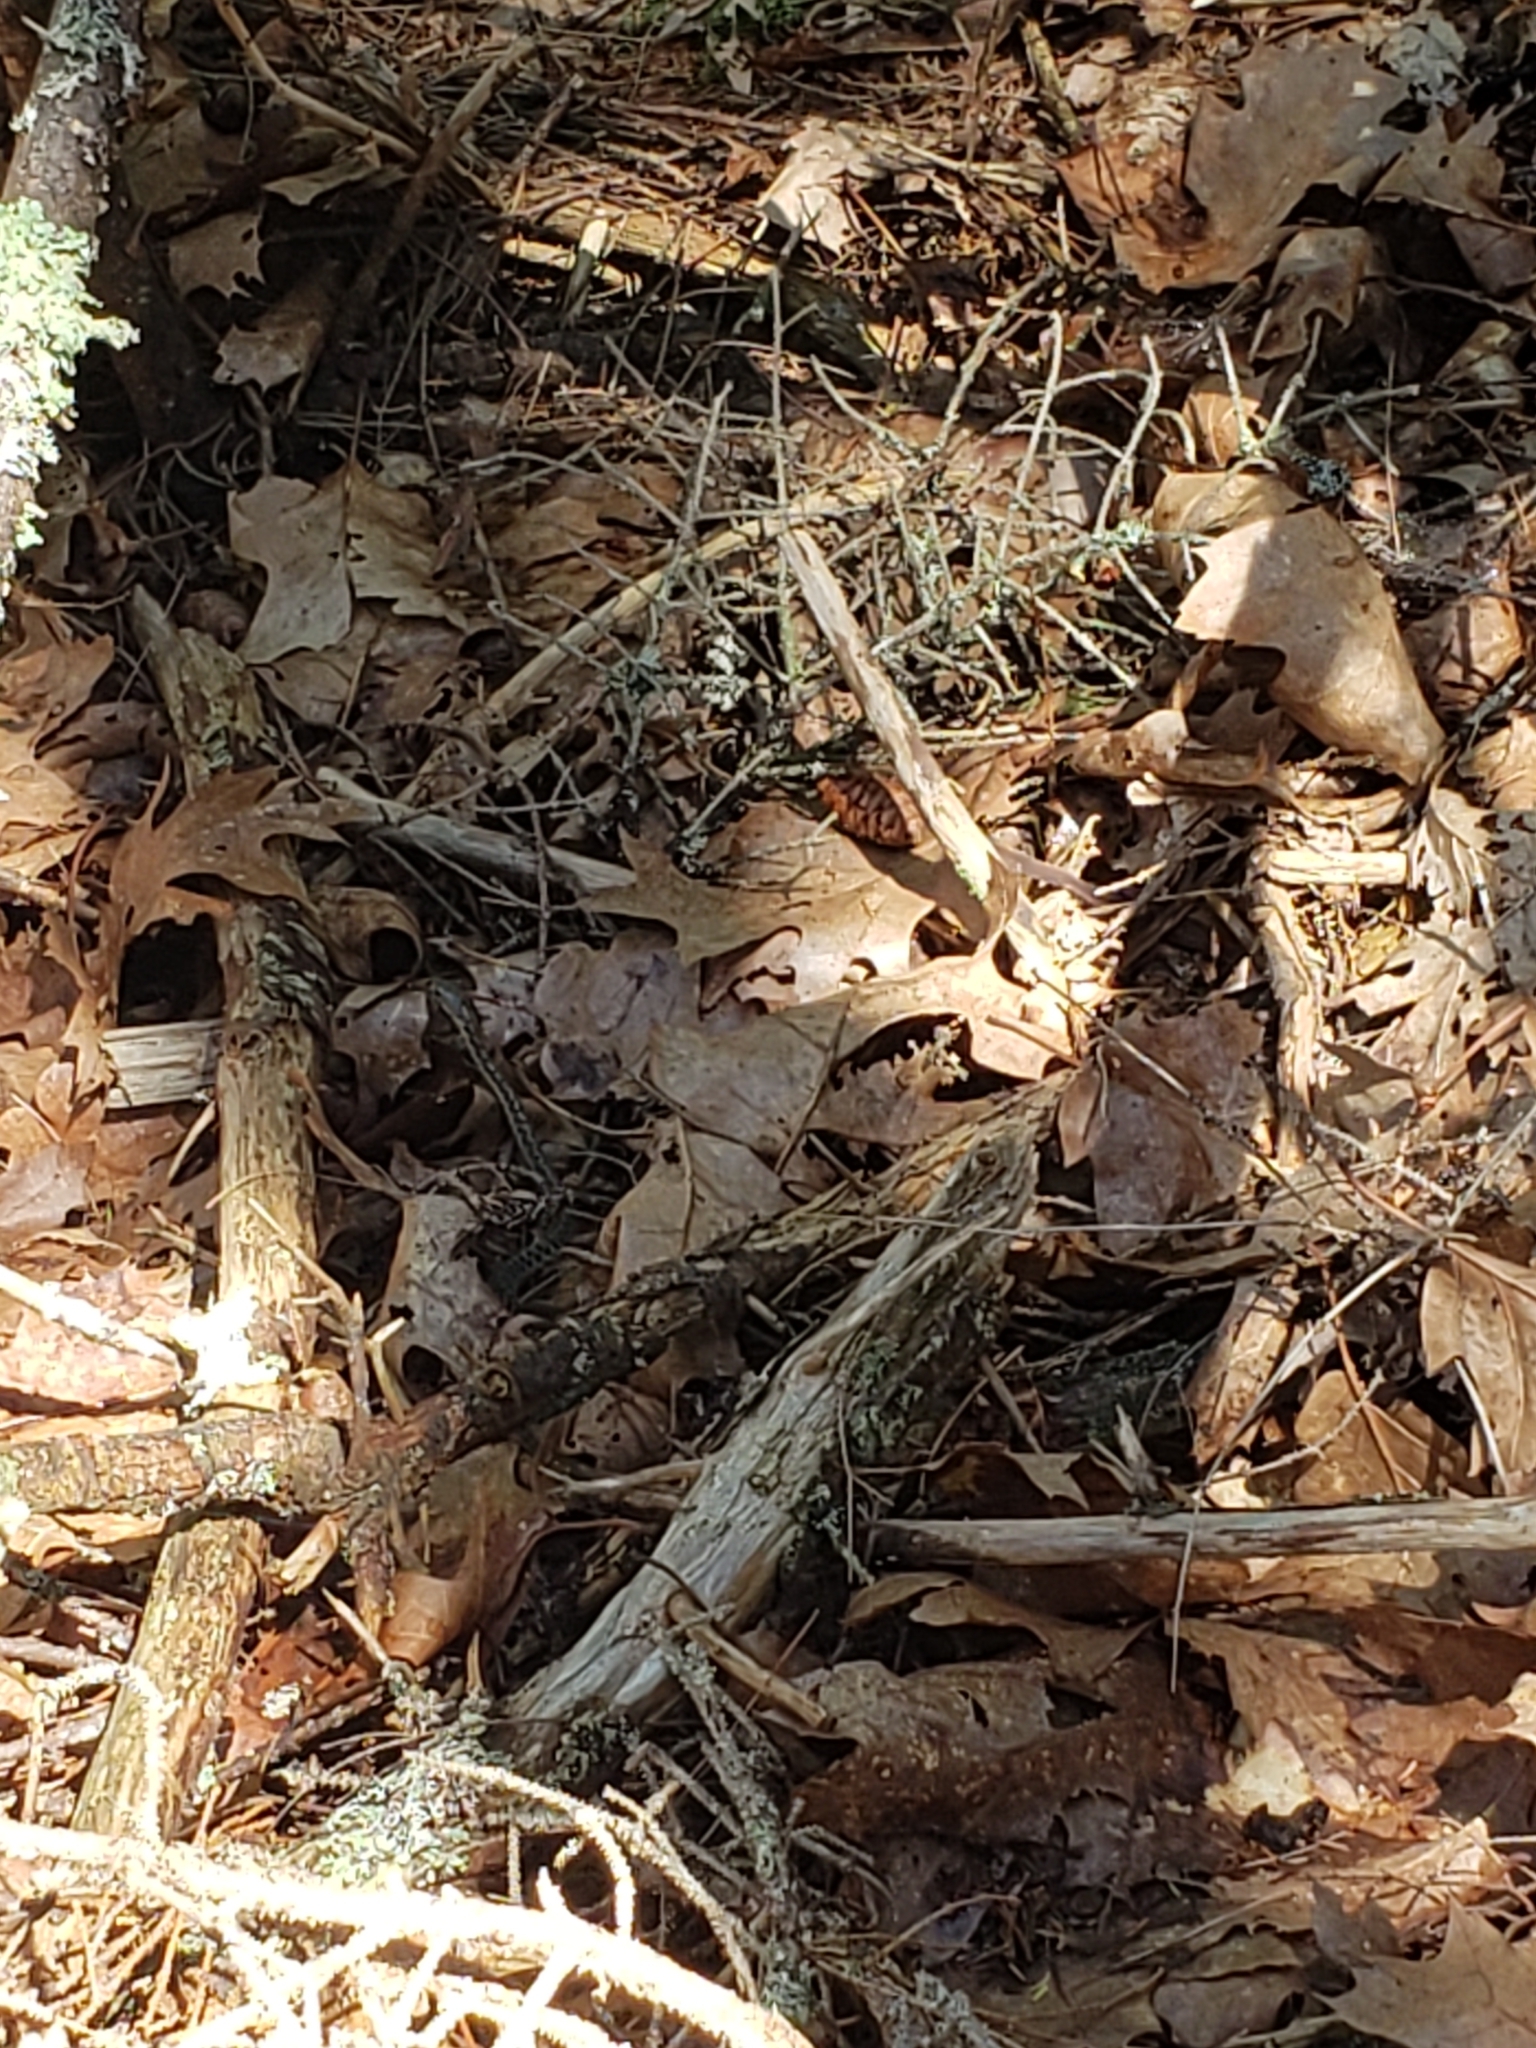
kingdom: Animalia
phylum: Chordata
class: Squamata
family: Colubridae
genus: Thamnophis
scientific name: Thamnophis sirtalis
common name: Common garter snake
